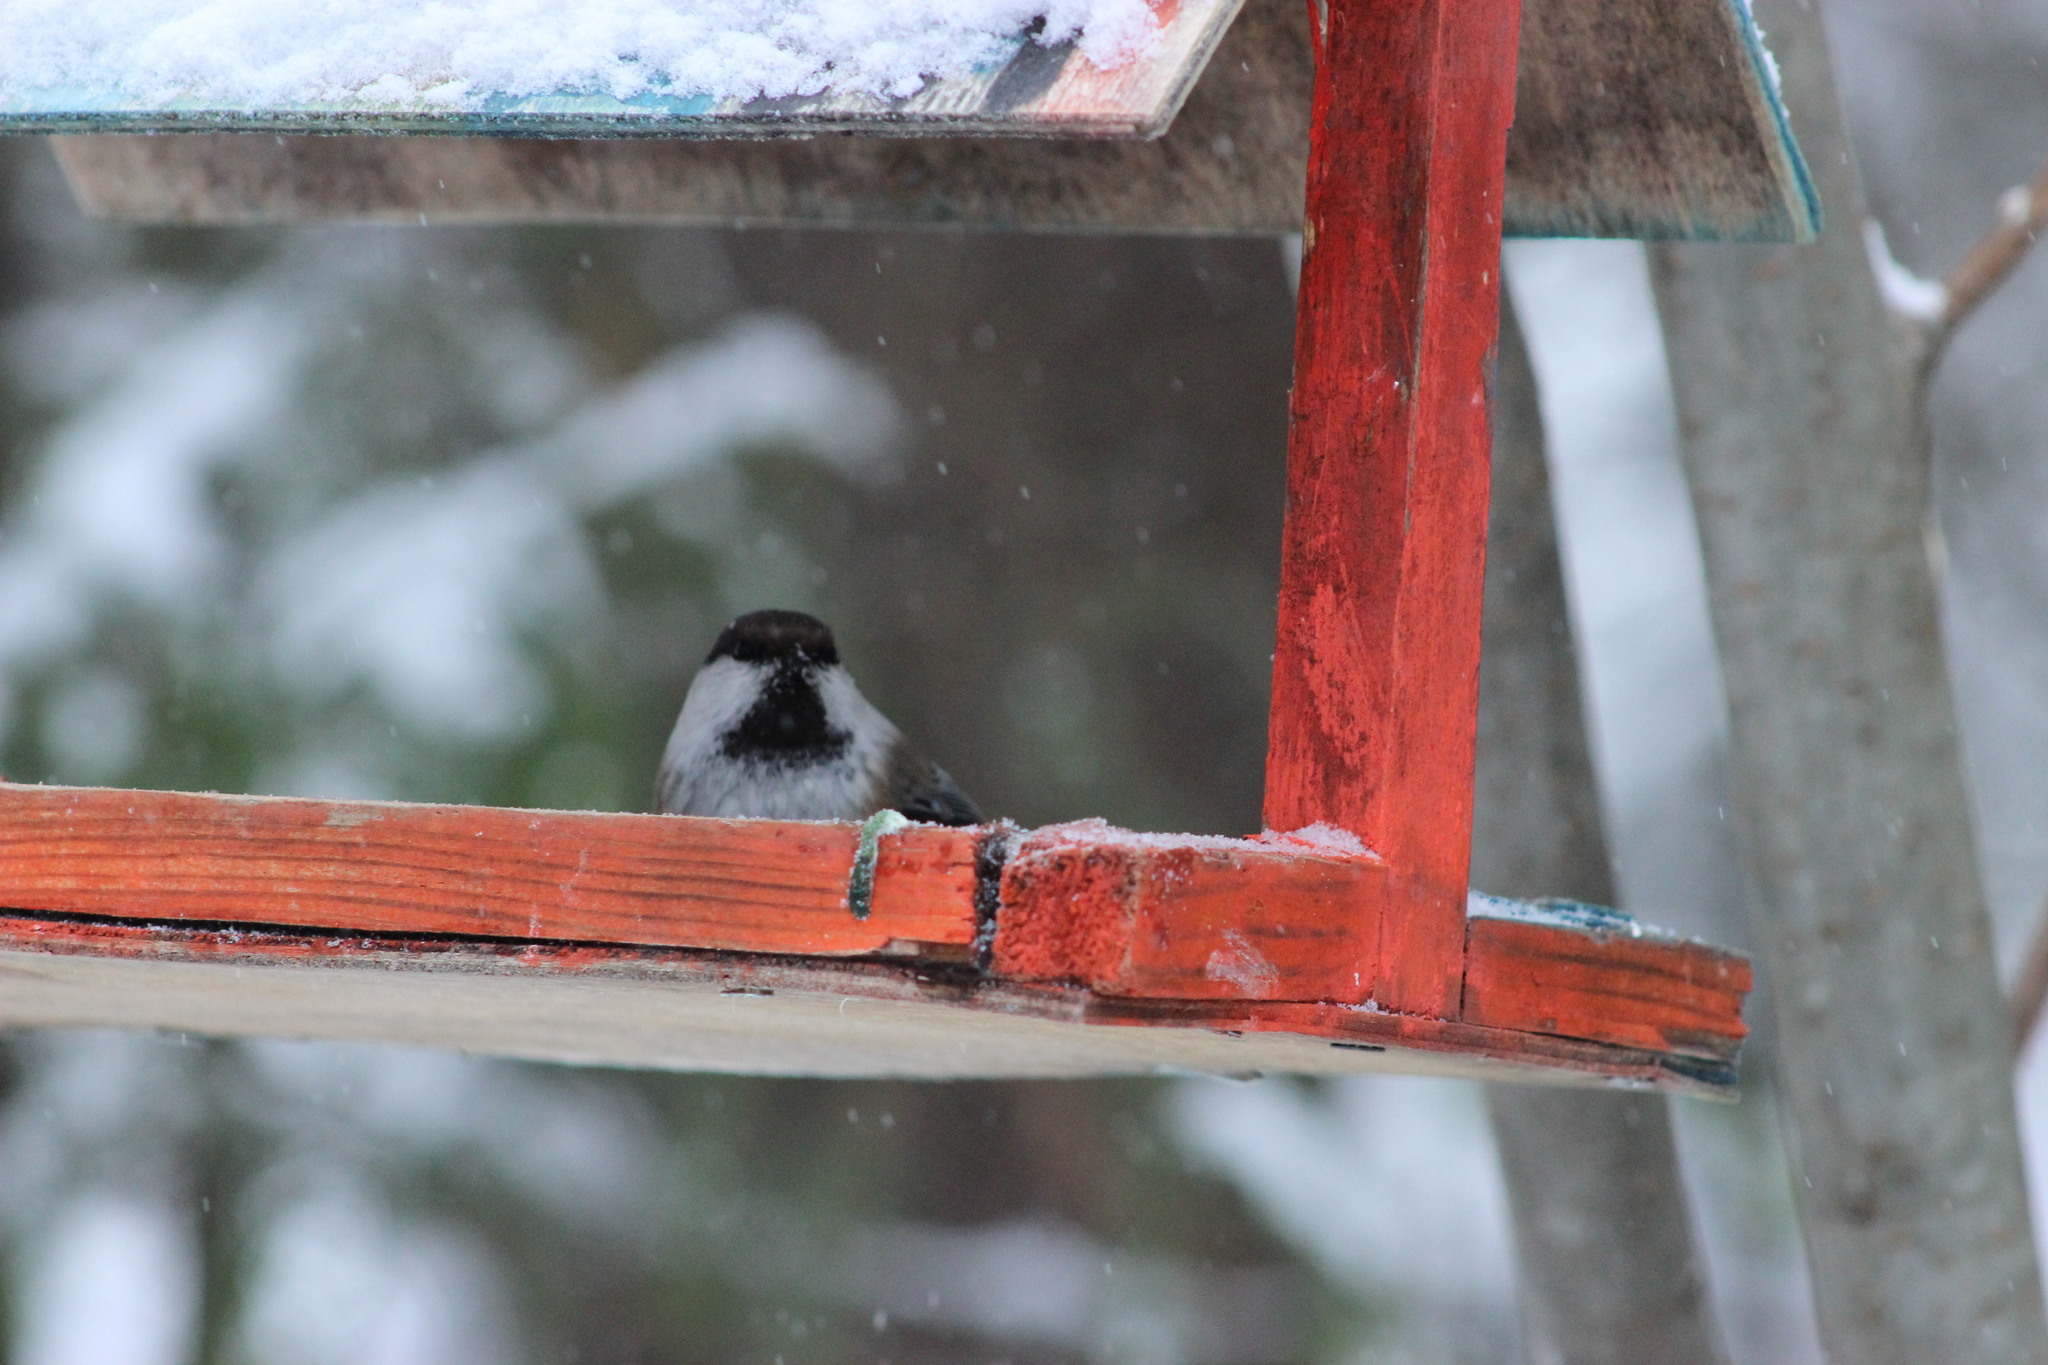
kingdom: Animalia
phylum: Chordata
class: Aves
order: Passeriformes
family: Paridae
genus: Poecile
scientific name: Poecile cinctus
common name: Gray-headed chickadee
